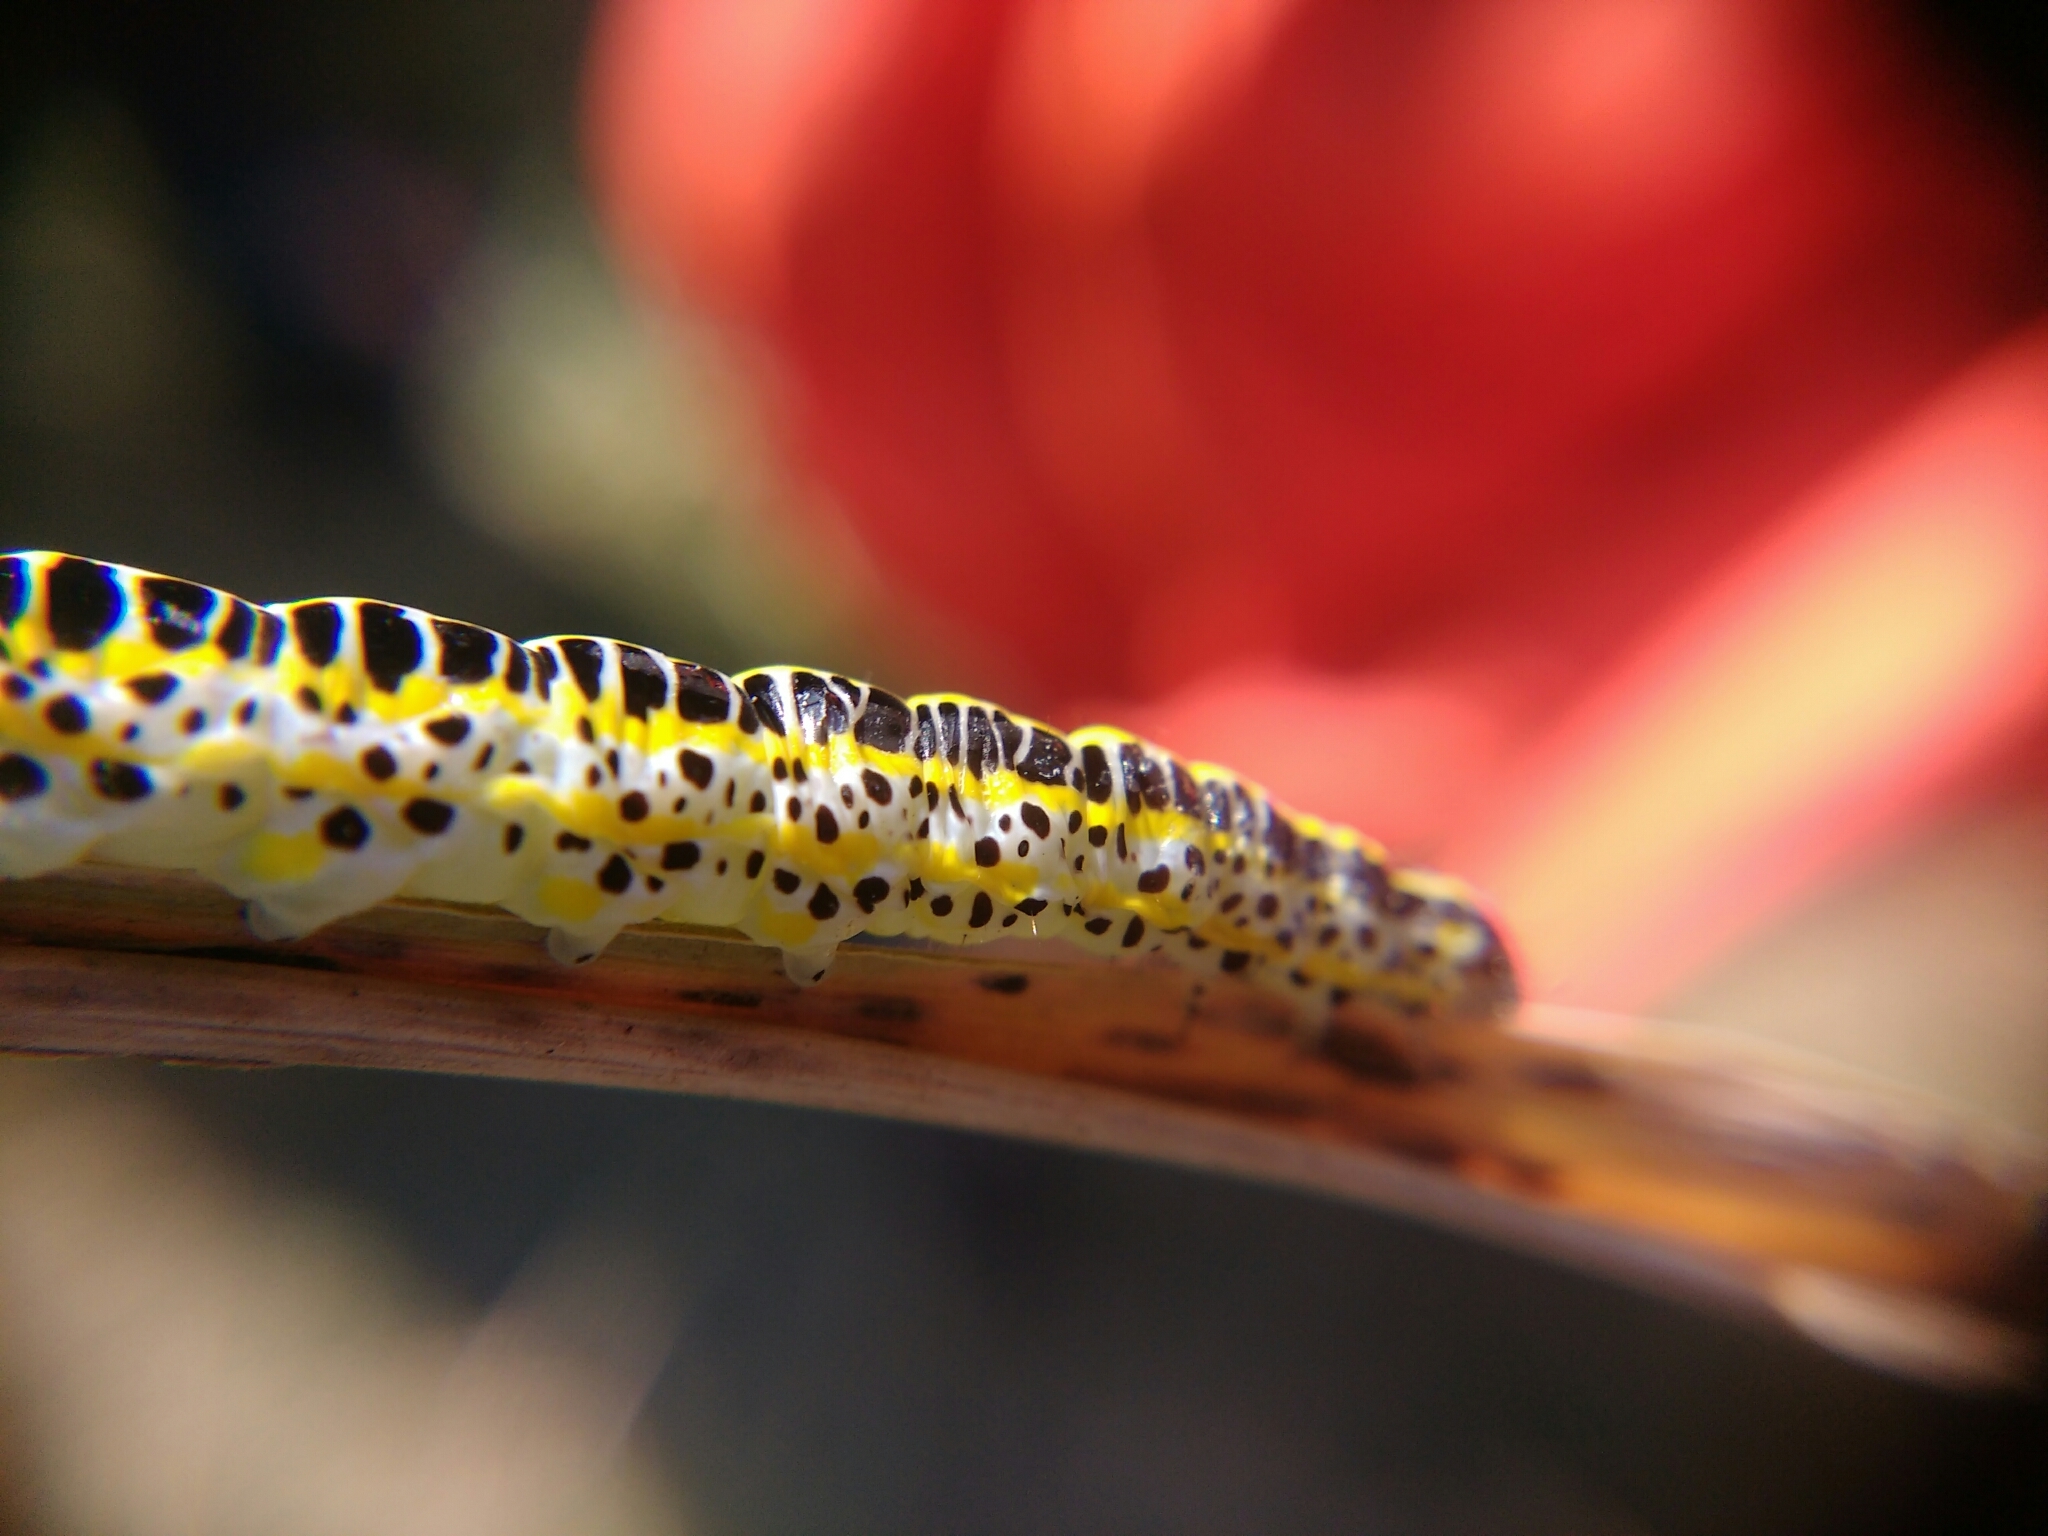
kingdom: Animalia
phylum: Arthropoda
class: Insecta
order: Lepidoptera
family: Noctuidae
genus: Calophasia
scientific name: Calophasia lunula
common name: Toadflax brocade
